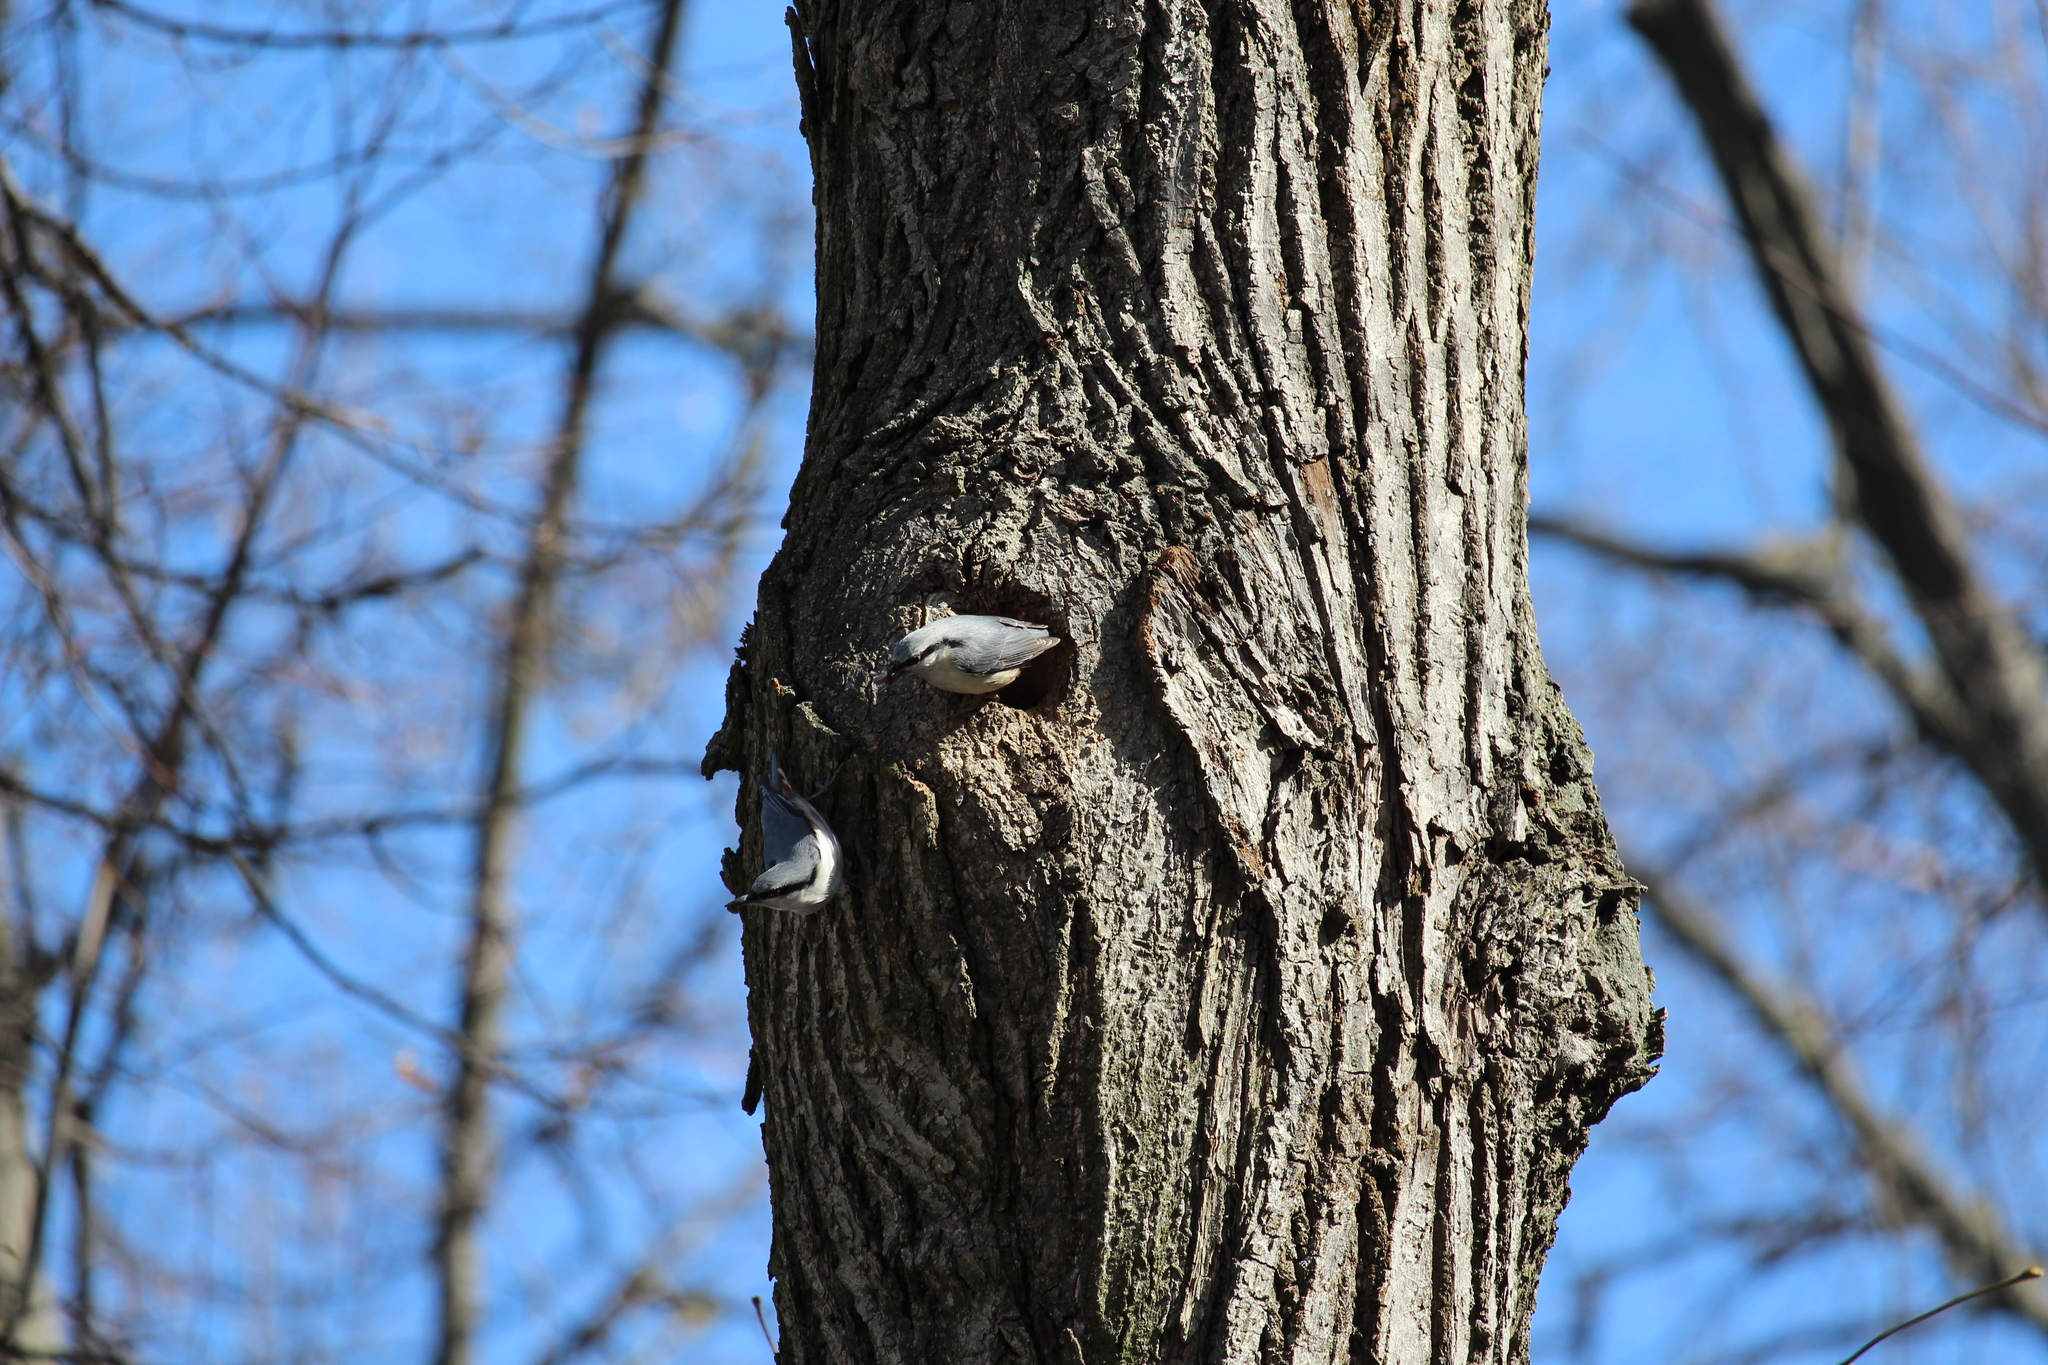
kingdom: Animalia
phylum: Chordata
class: Aves
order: Passeriformes
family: Sittidae
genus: Sitta
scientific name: Sitta europaea
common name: Eurasian nuthatch
